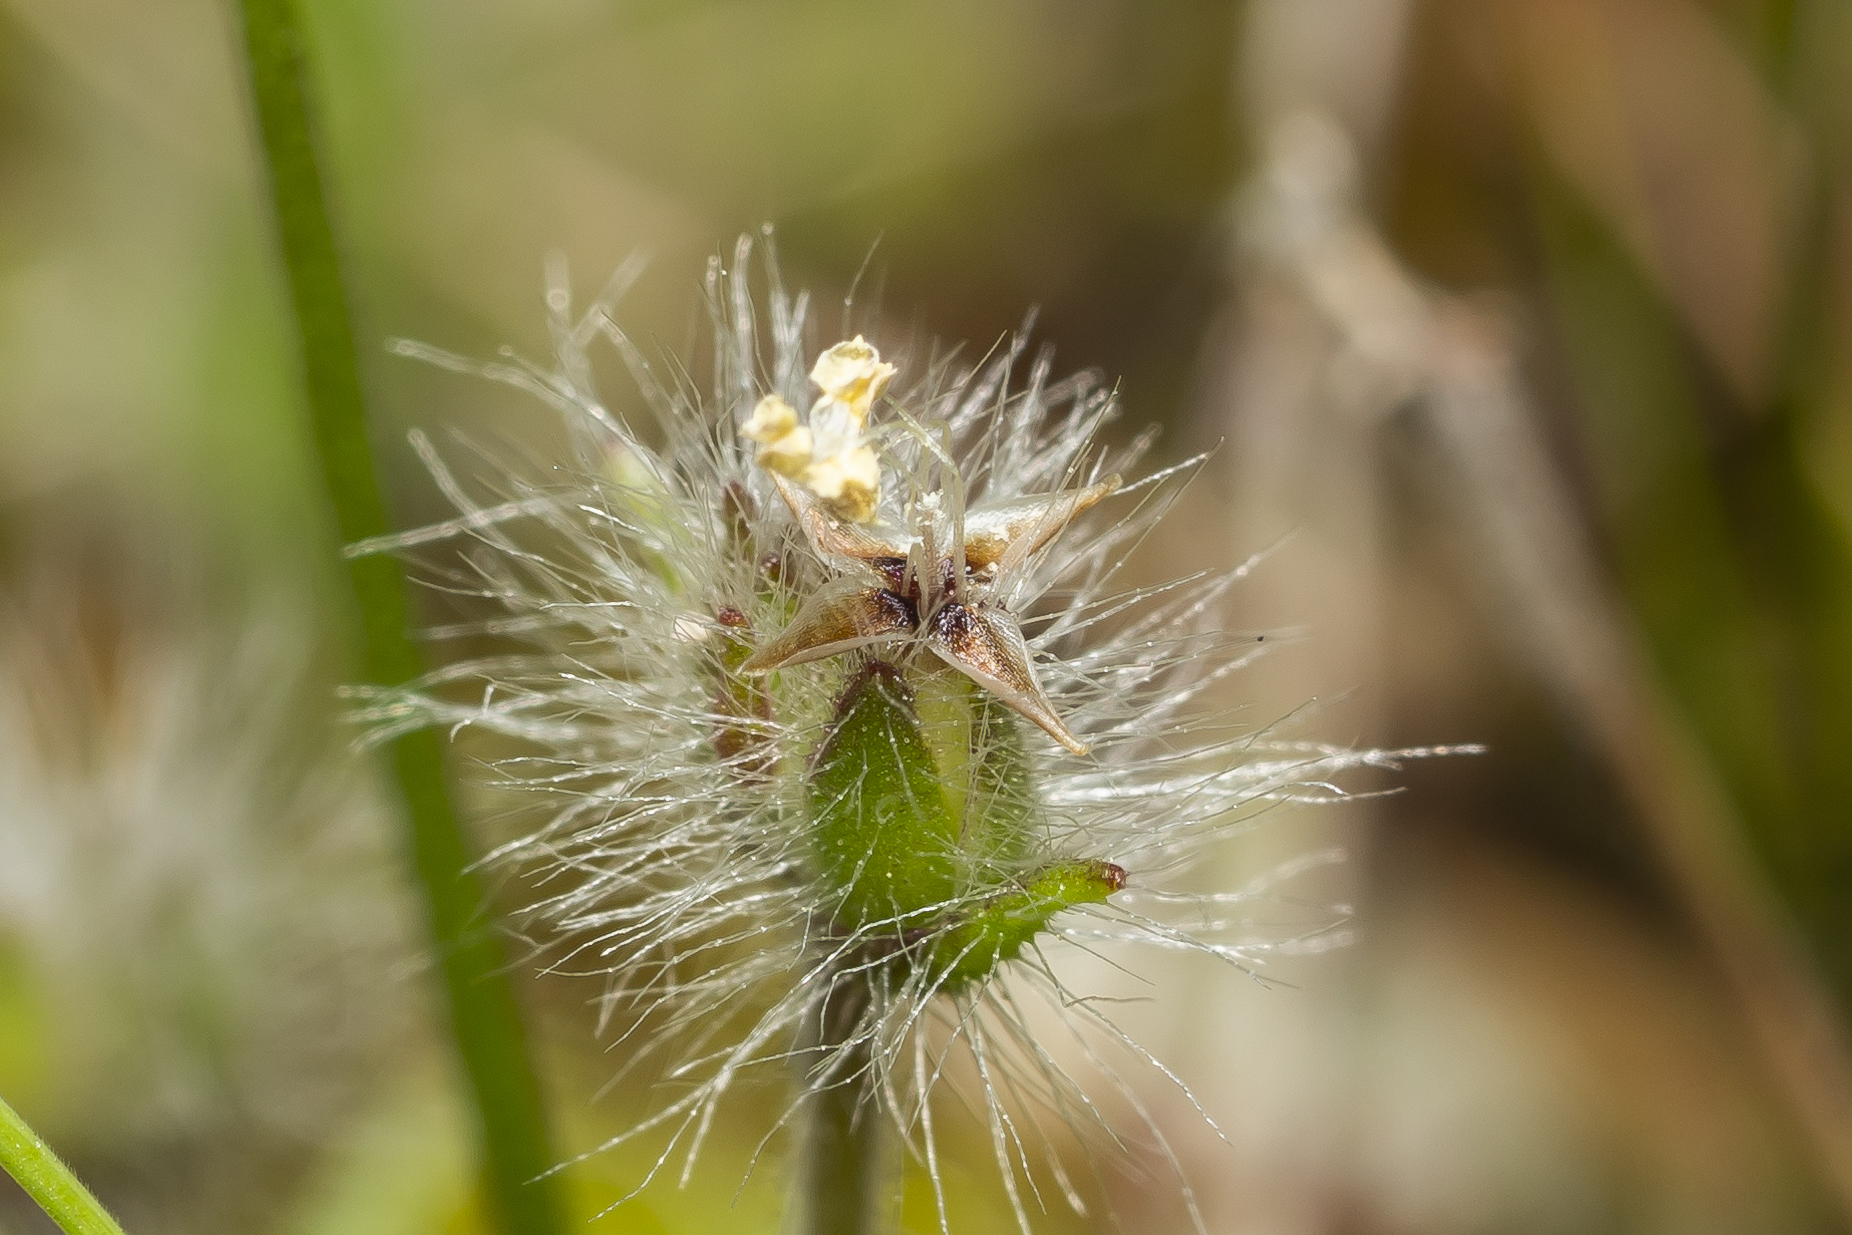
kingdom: Plantae
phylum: Tracheophyta
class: Magnoliopsida
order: Lamiales
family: Plantaginaceae
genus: Plantago
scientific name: Plantago bellardii
